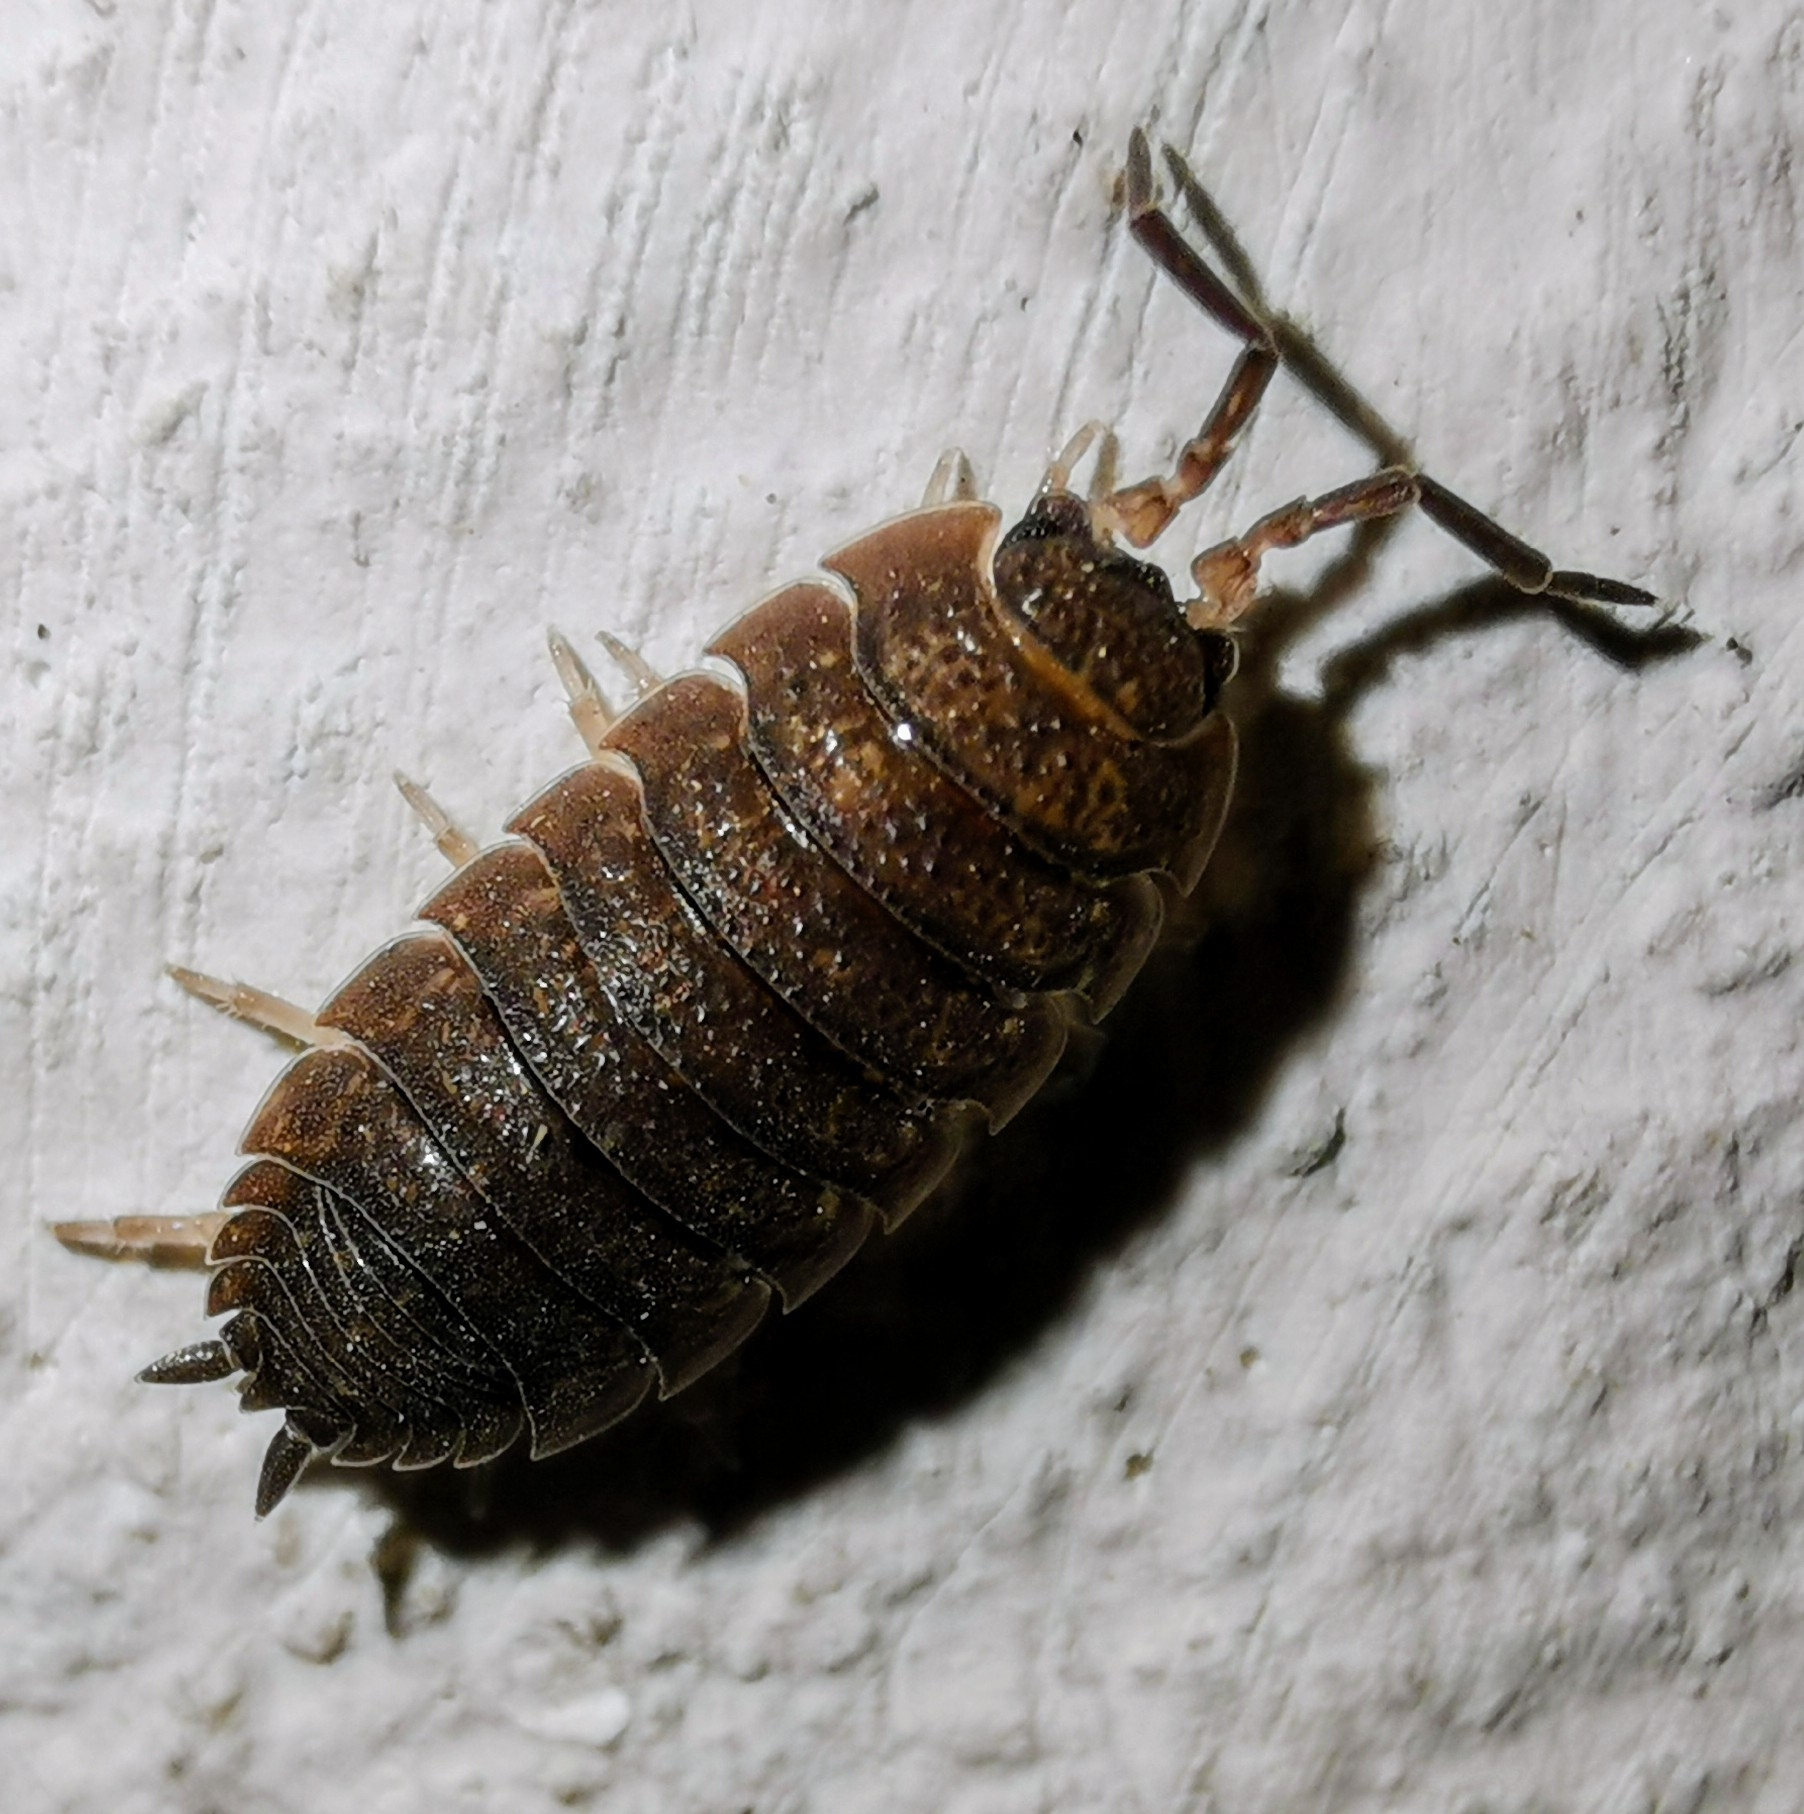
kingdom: Animalia
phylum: Arthropoda
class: Malacostraca
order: Isopoda
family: Porcellionidae
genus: Porcellio
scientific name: Porcellio scaber
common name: Common rough woodlouse
